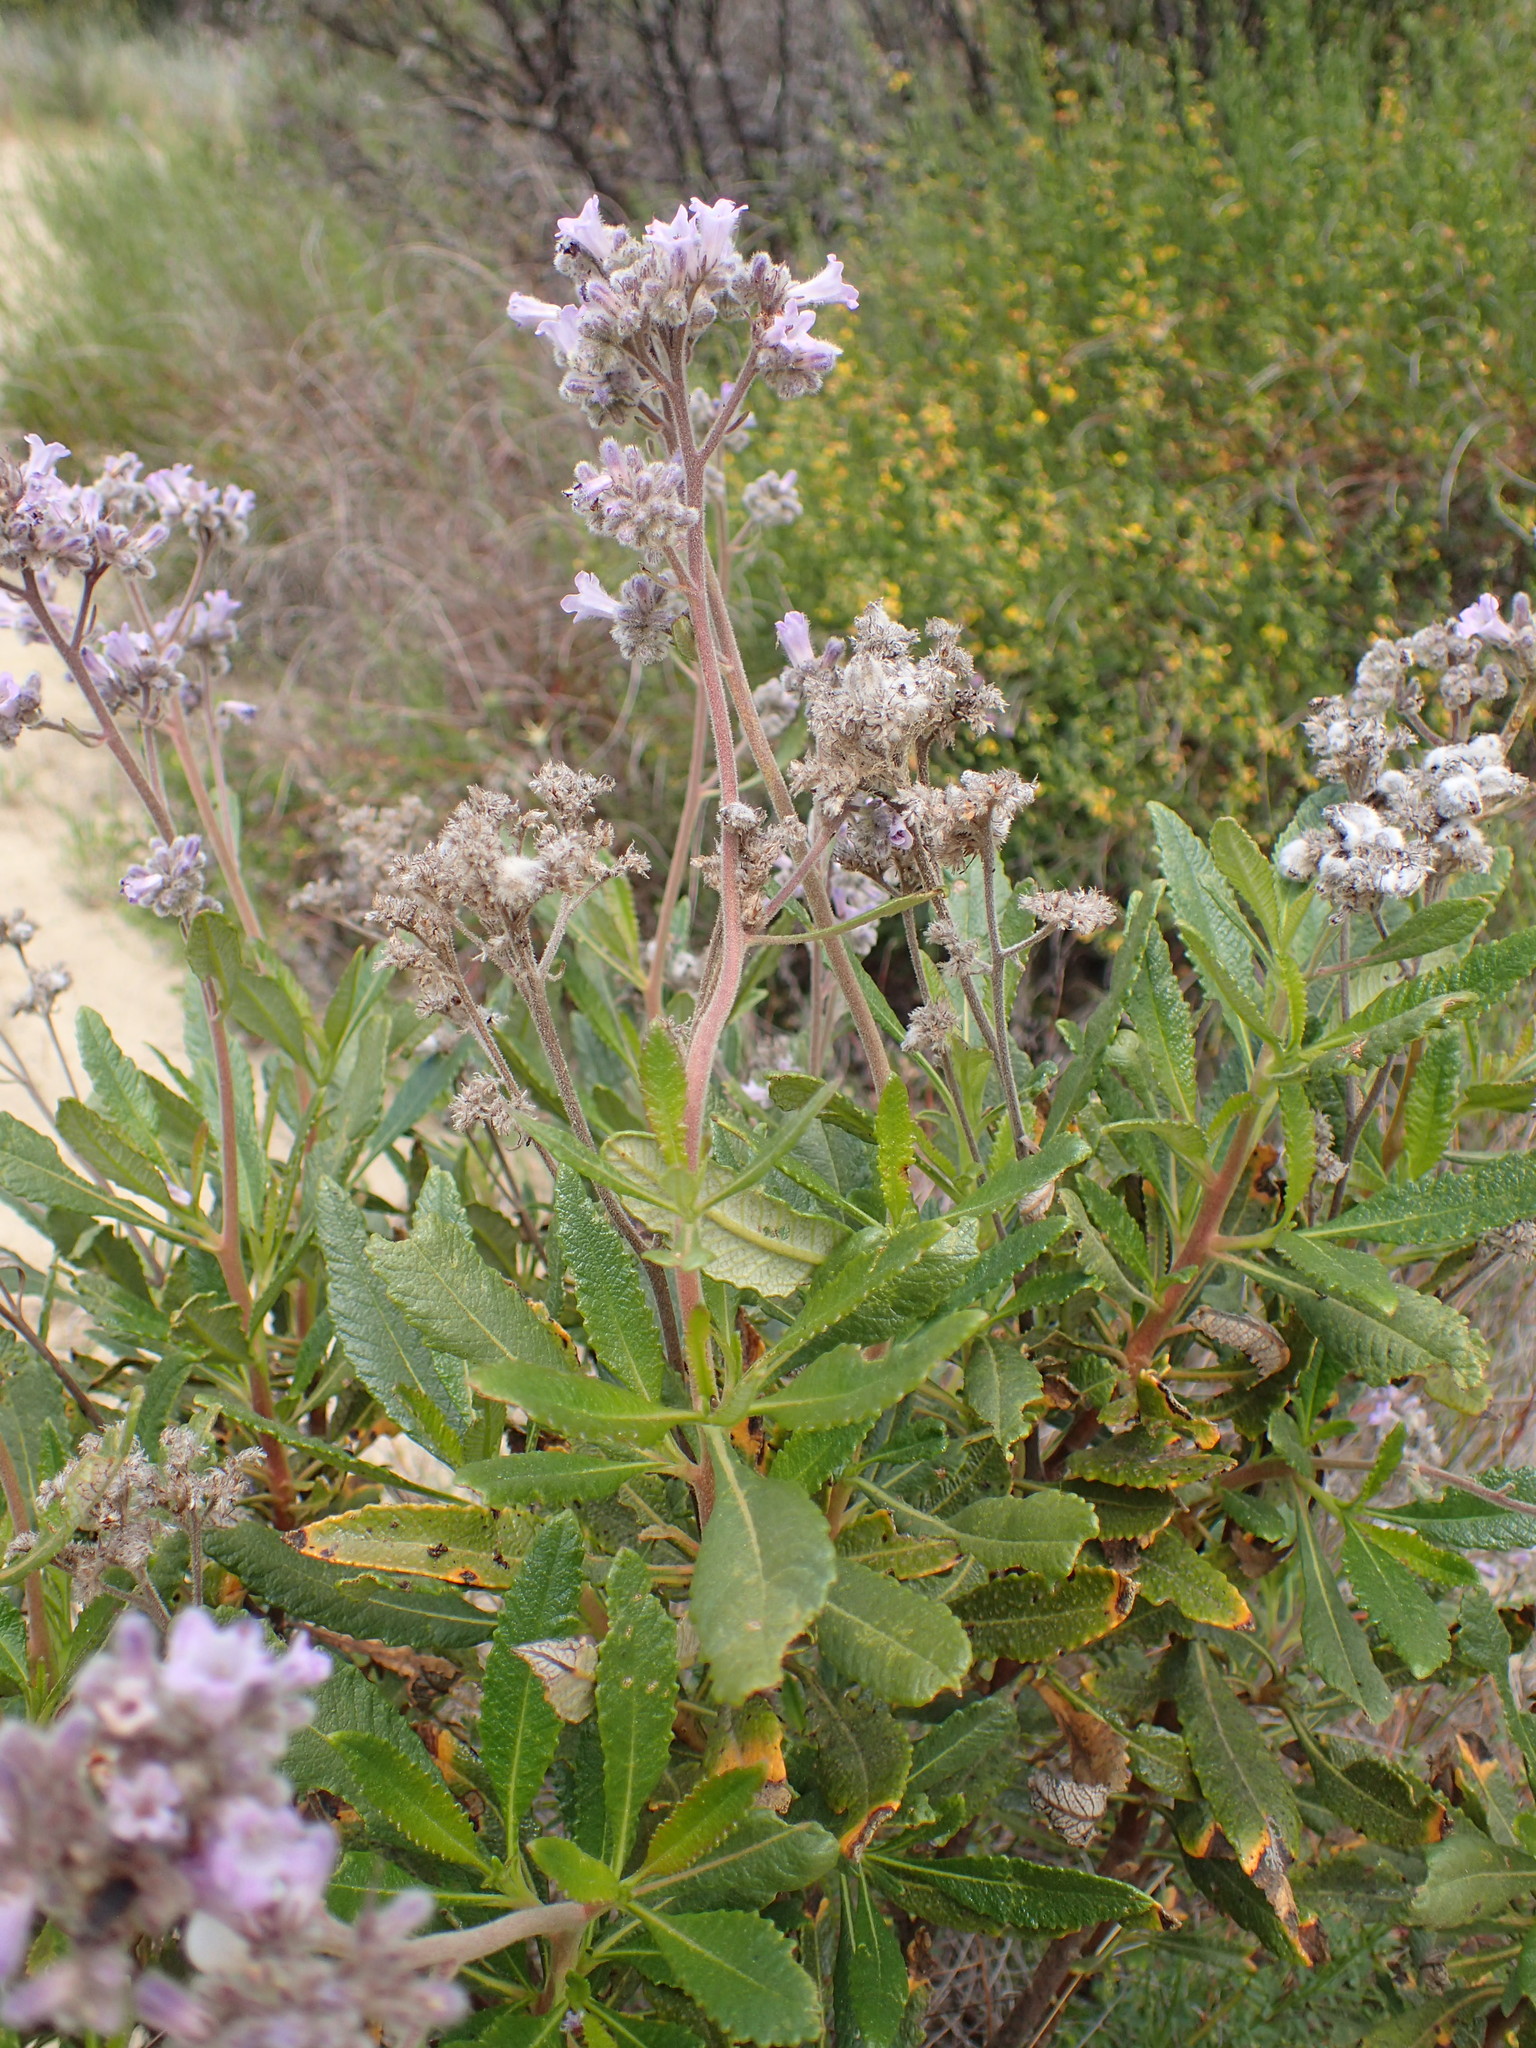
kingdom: Plantae
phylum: Tracheophyta
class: Magnoliopsida
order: Boraginales
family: Namaceae
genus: Eriodictyon
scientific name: Eriodictyon crassifolium
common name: Thick-leaf yerba-santa
